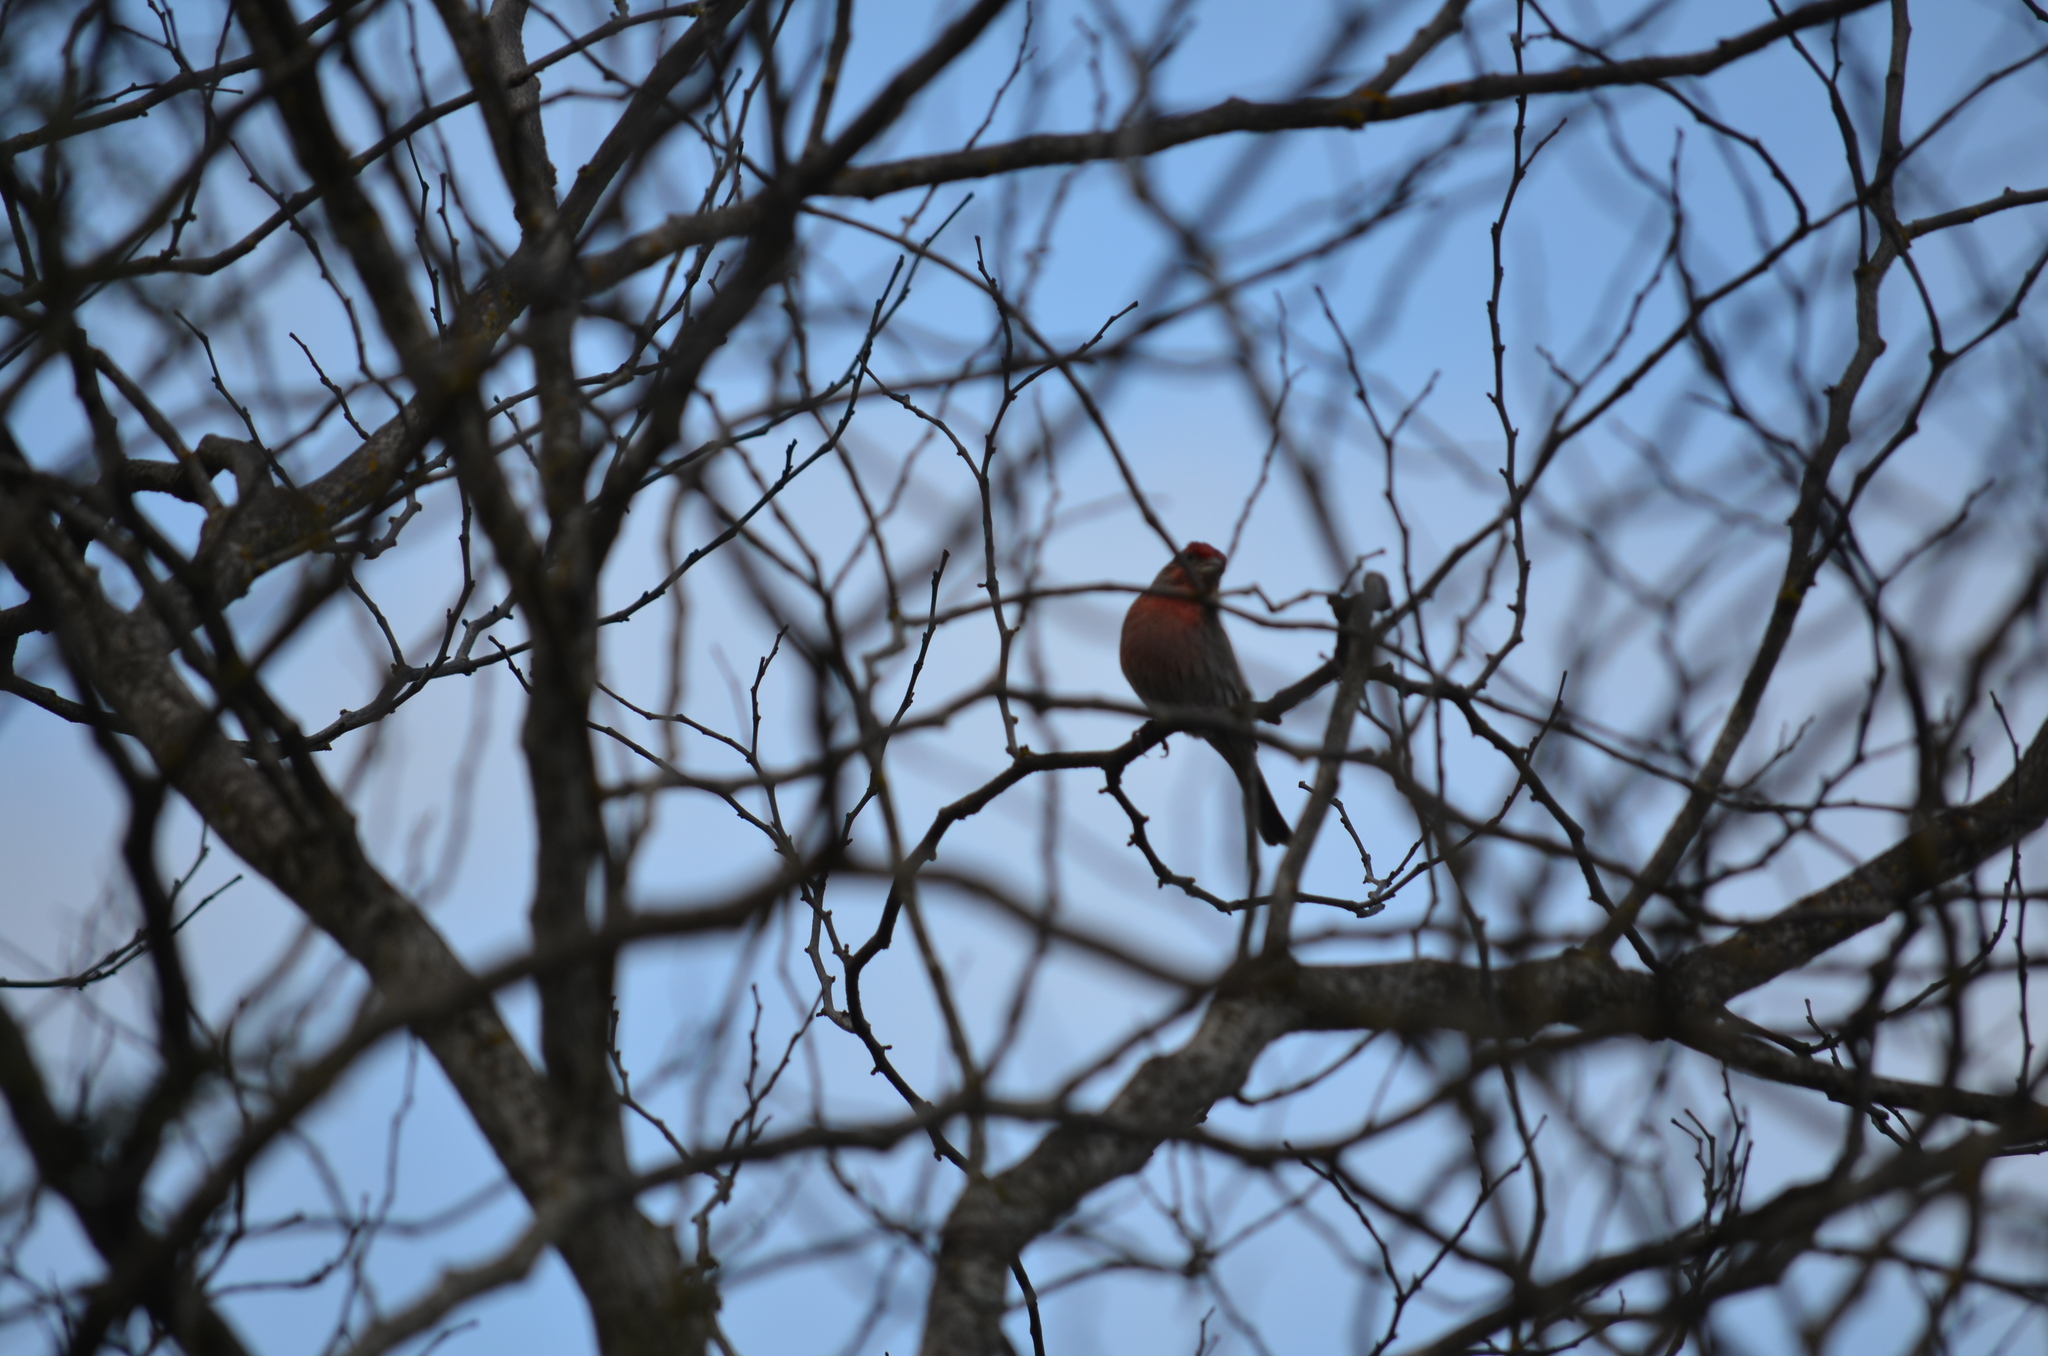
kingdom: Animalia
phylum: Chordata
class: Aves
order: Passeriformes
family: Fringillidae
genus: Haemorhous
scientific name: Haemorhous mexicanus
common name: House finch
